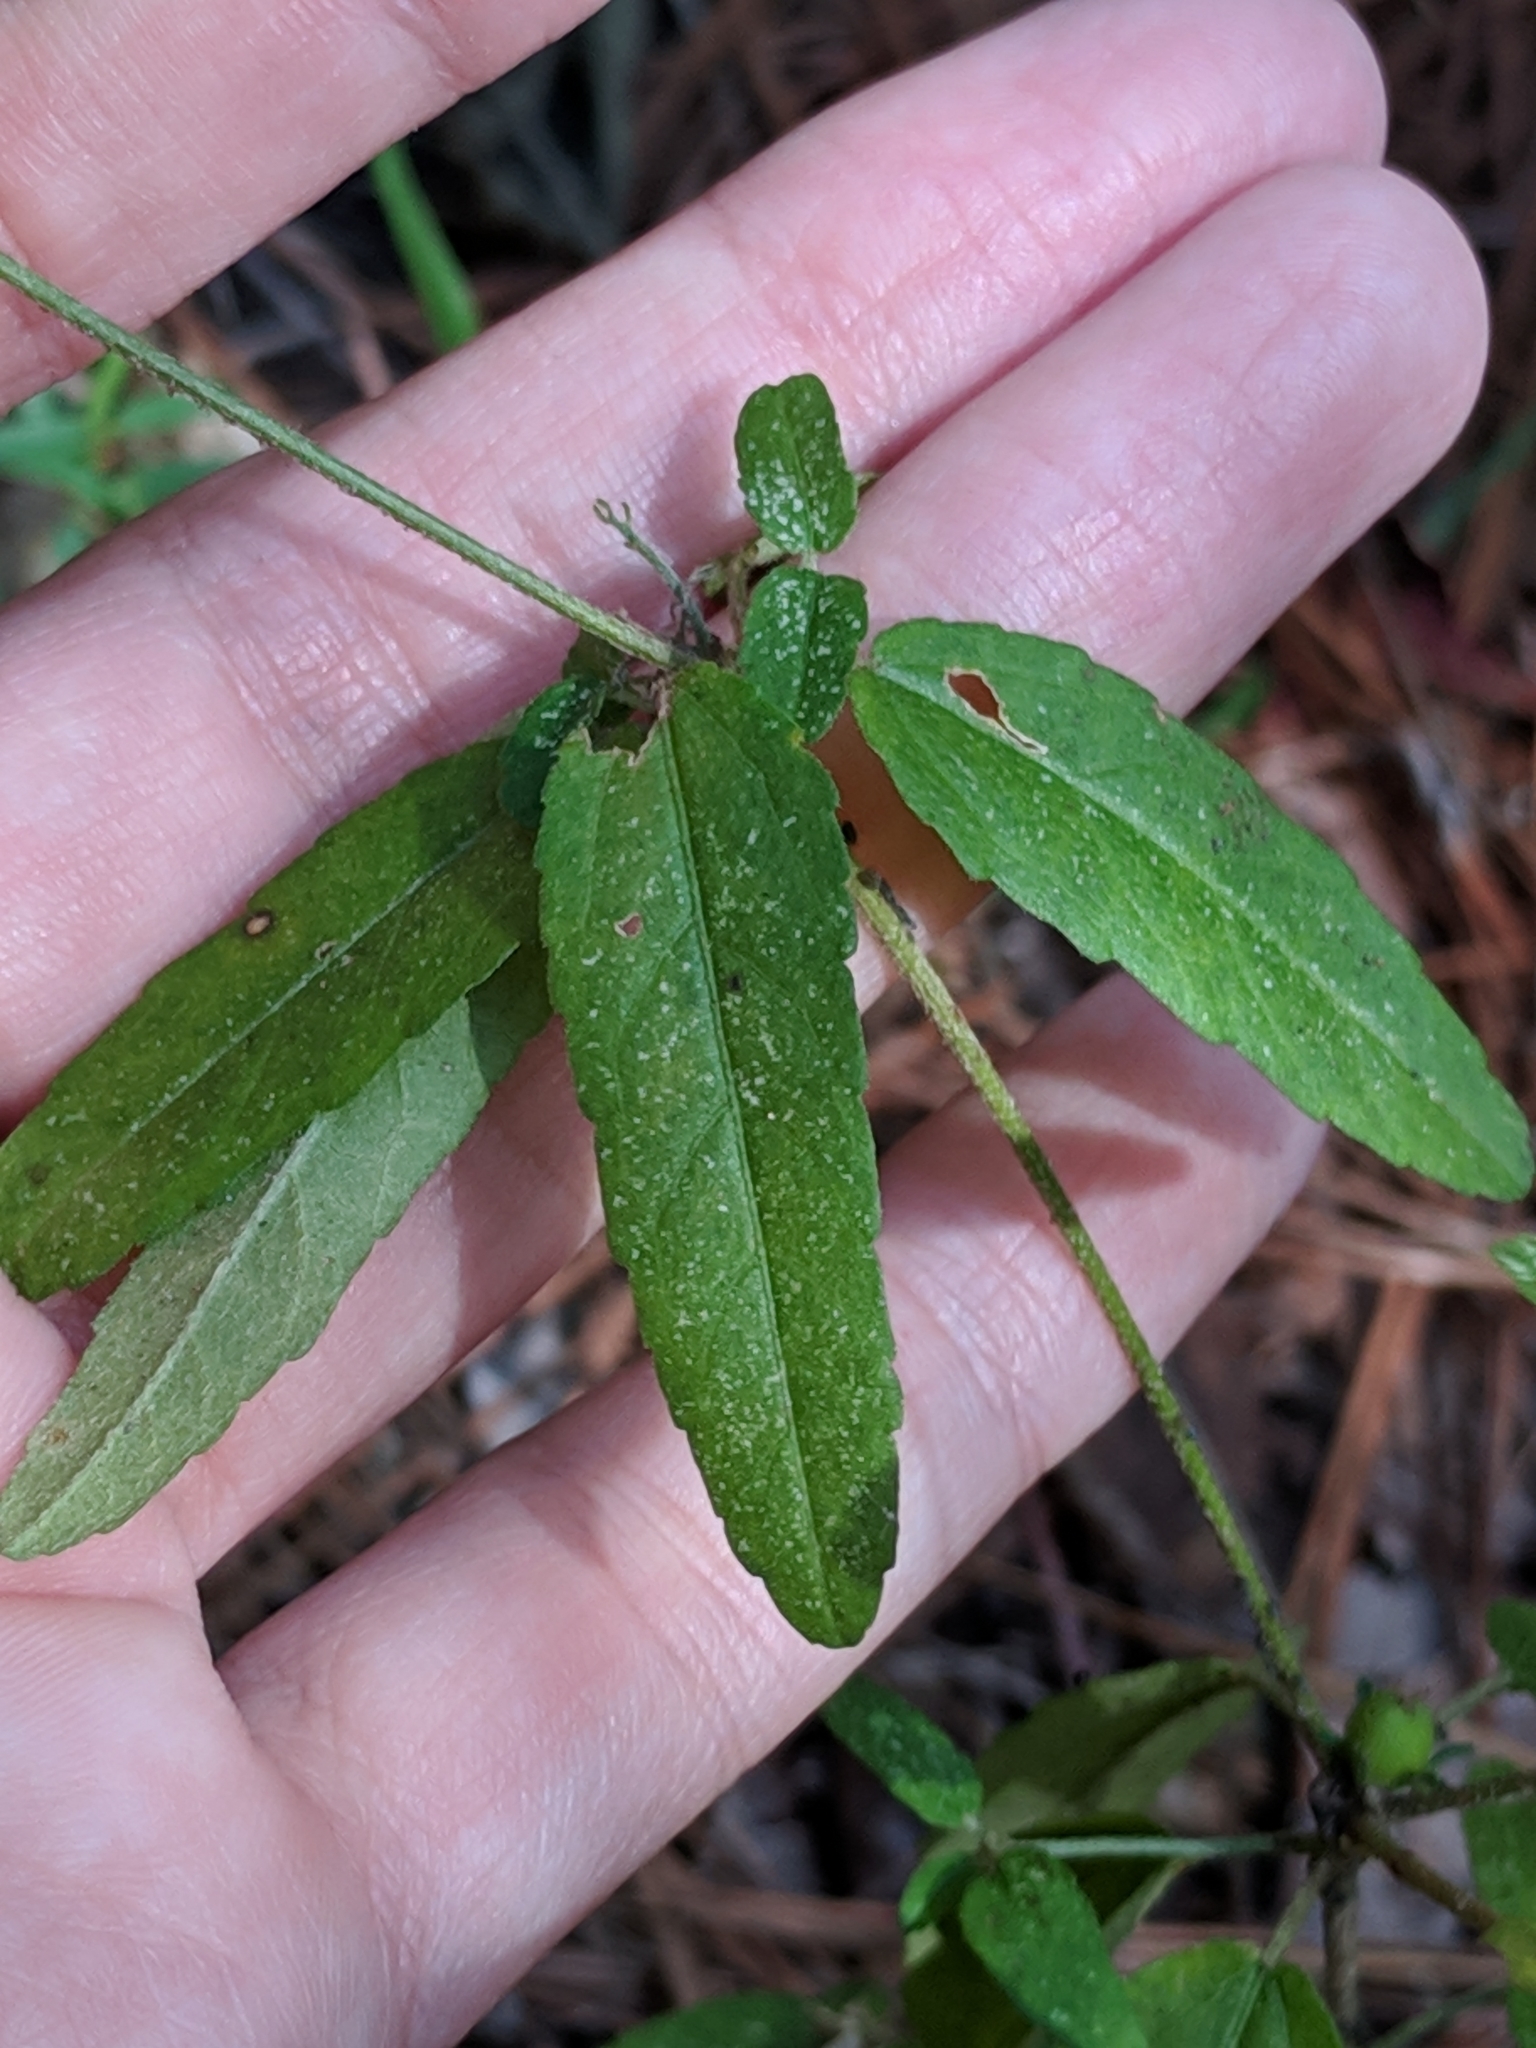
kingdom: Plantae
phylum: Tracheophyta
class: Magnoliopsida
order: Malpighiales
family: Euphorbiaceae
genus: Croton
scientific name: Croton glandulosus
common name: Tropic croton
